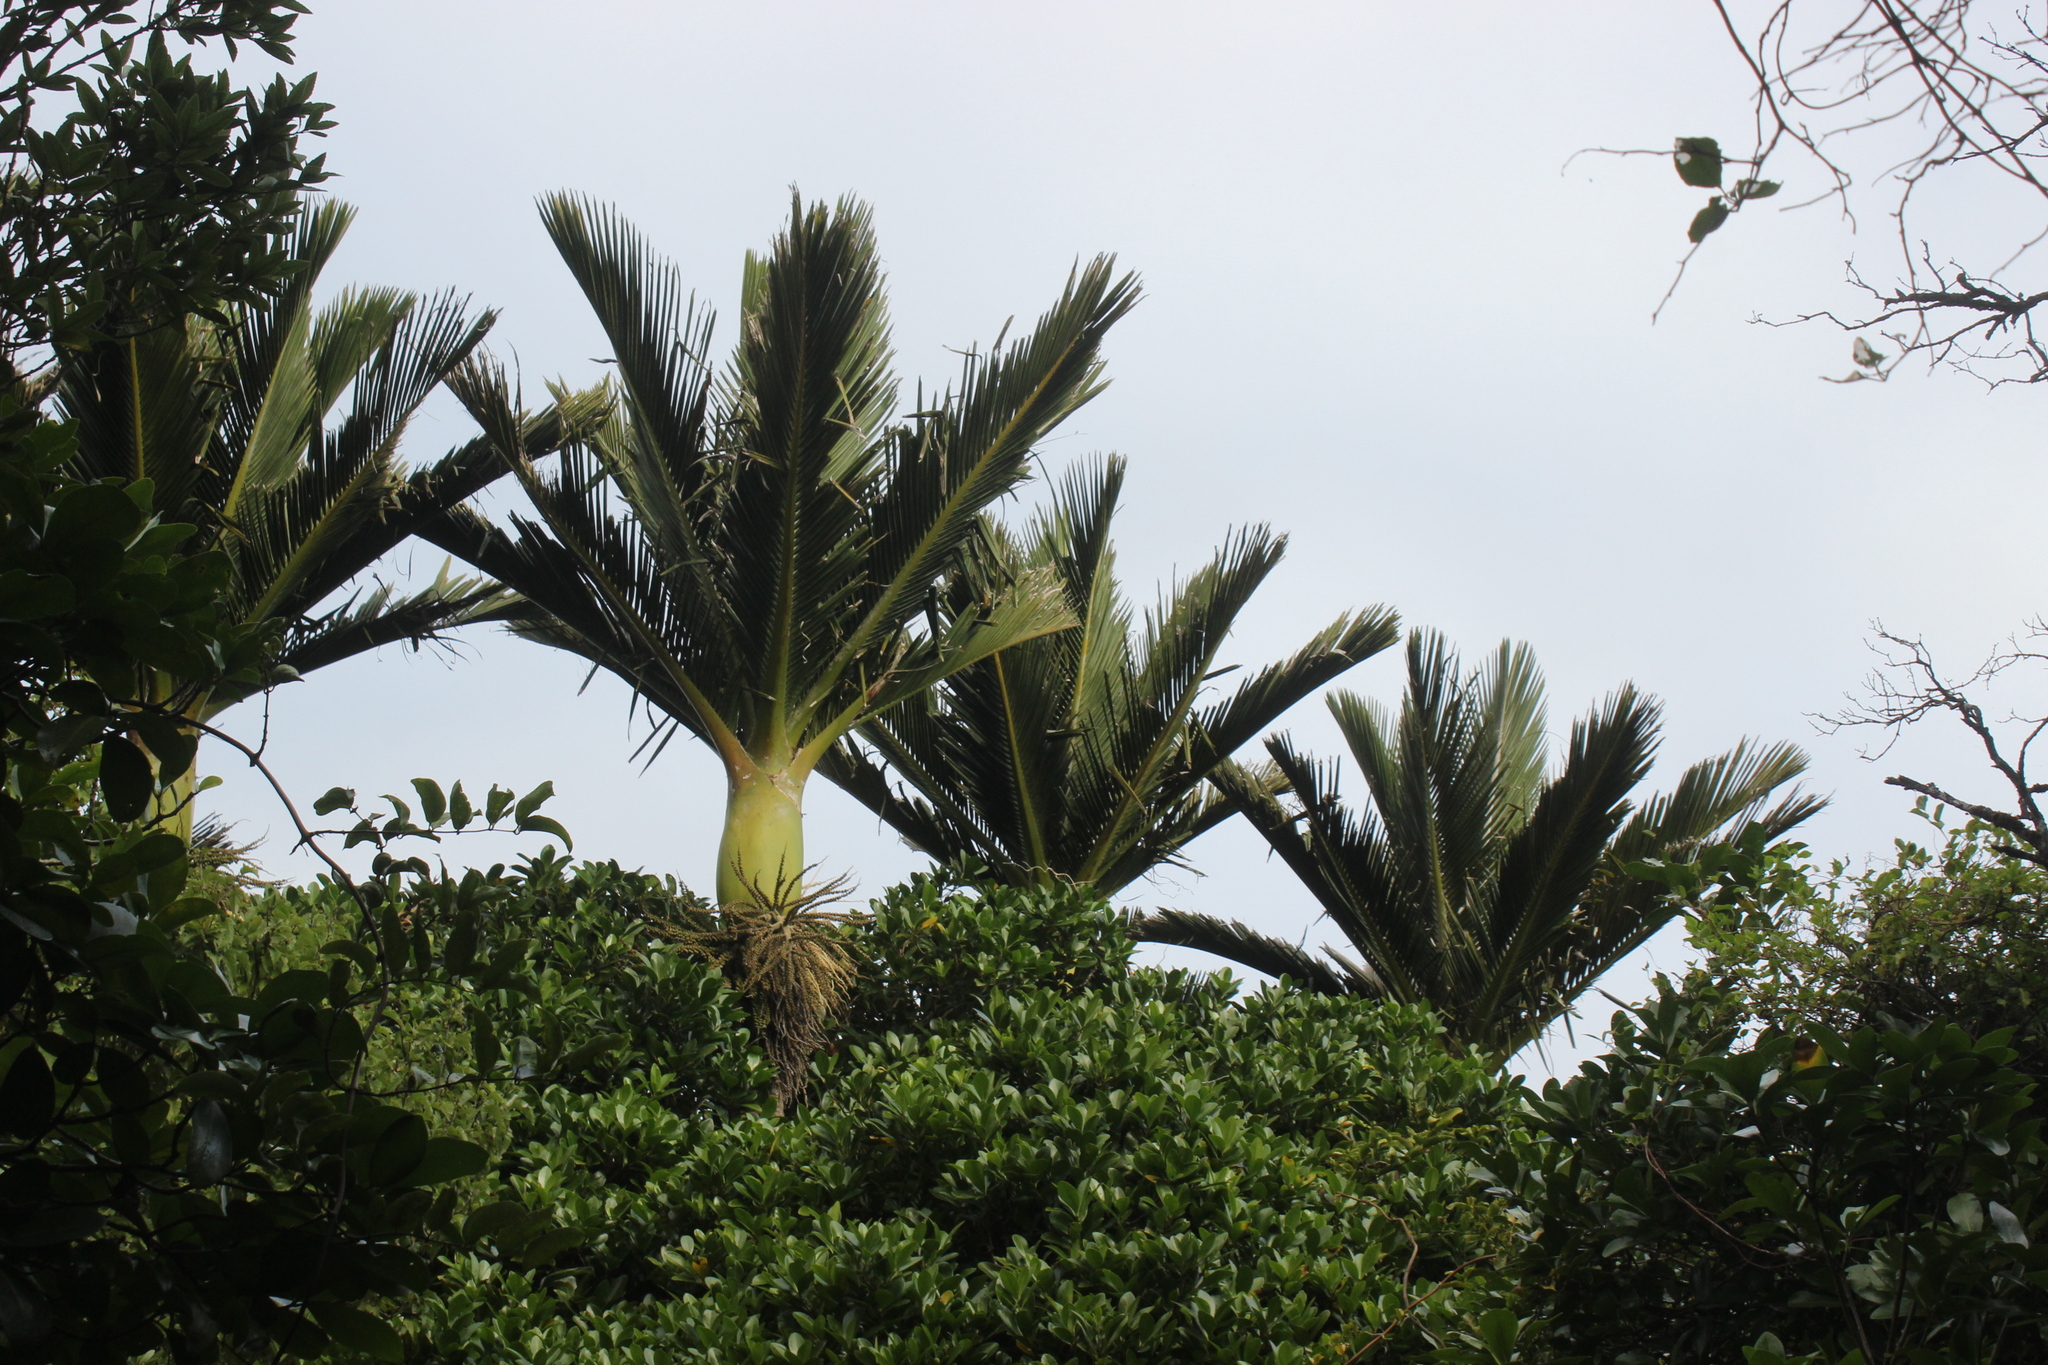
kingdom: Plantae
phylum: Tracheophyta
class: Liliopsida
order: Arecales
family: Arecaceae
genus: Rhopalostylis
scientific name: Rhopalostylis sapida
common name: Feather-duster palm
